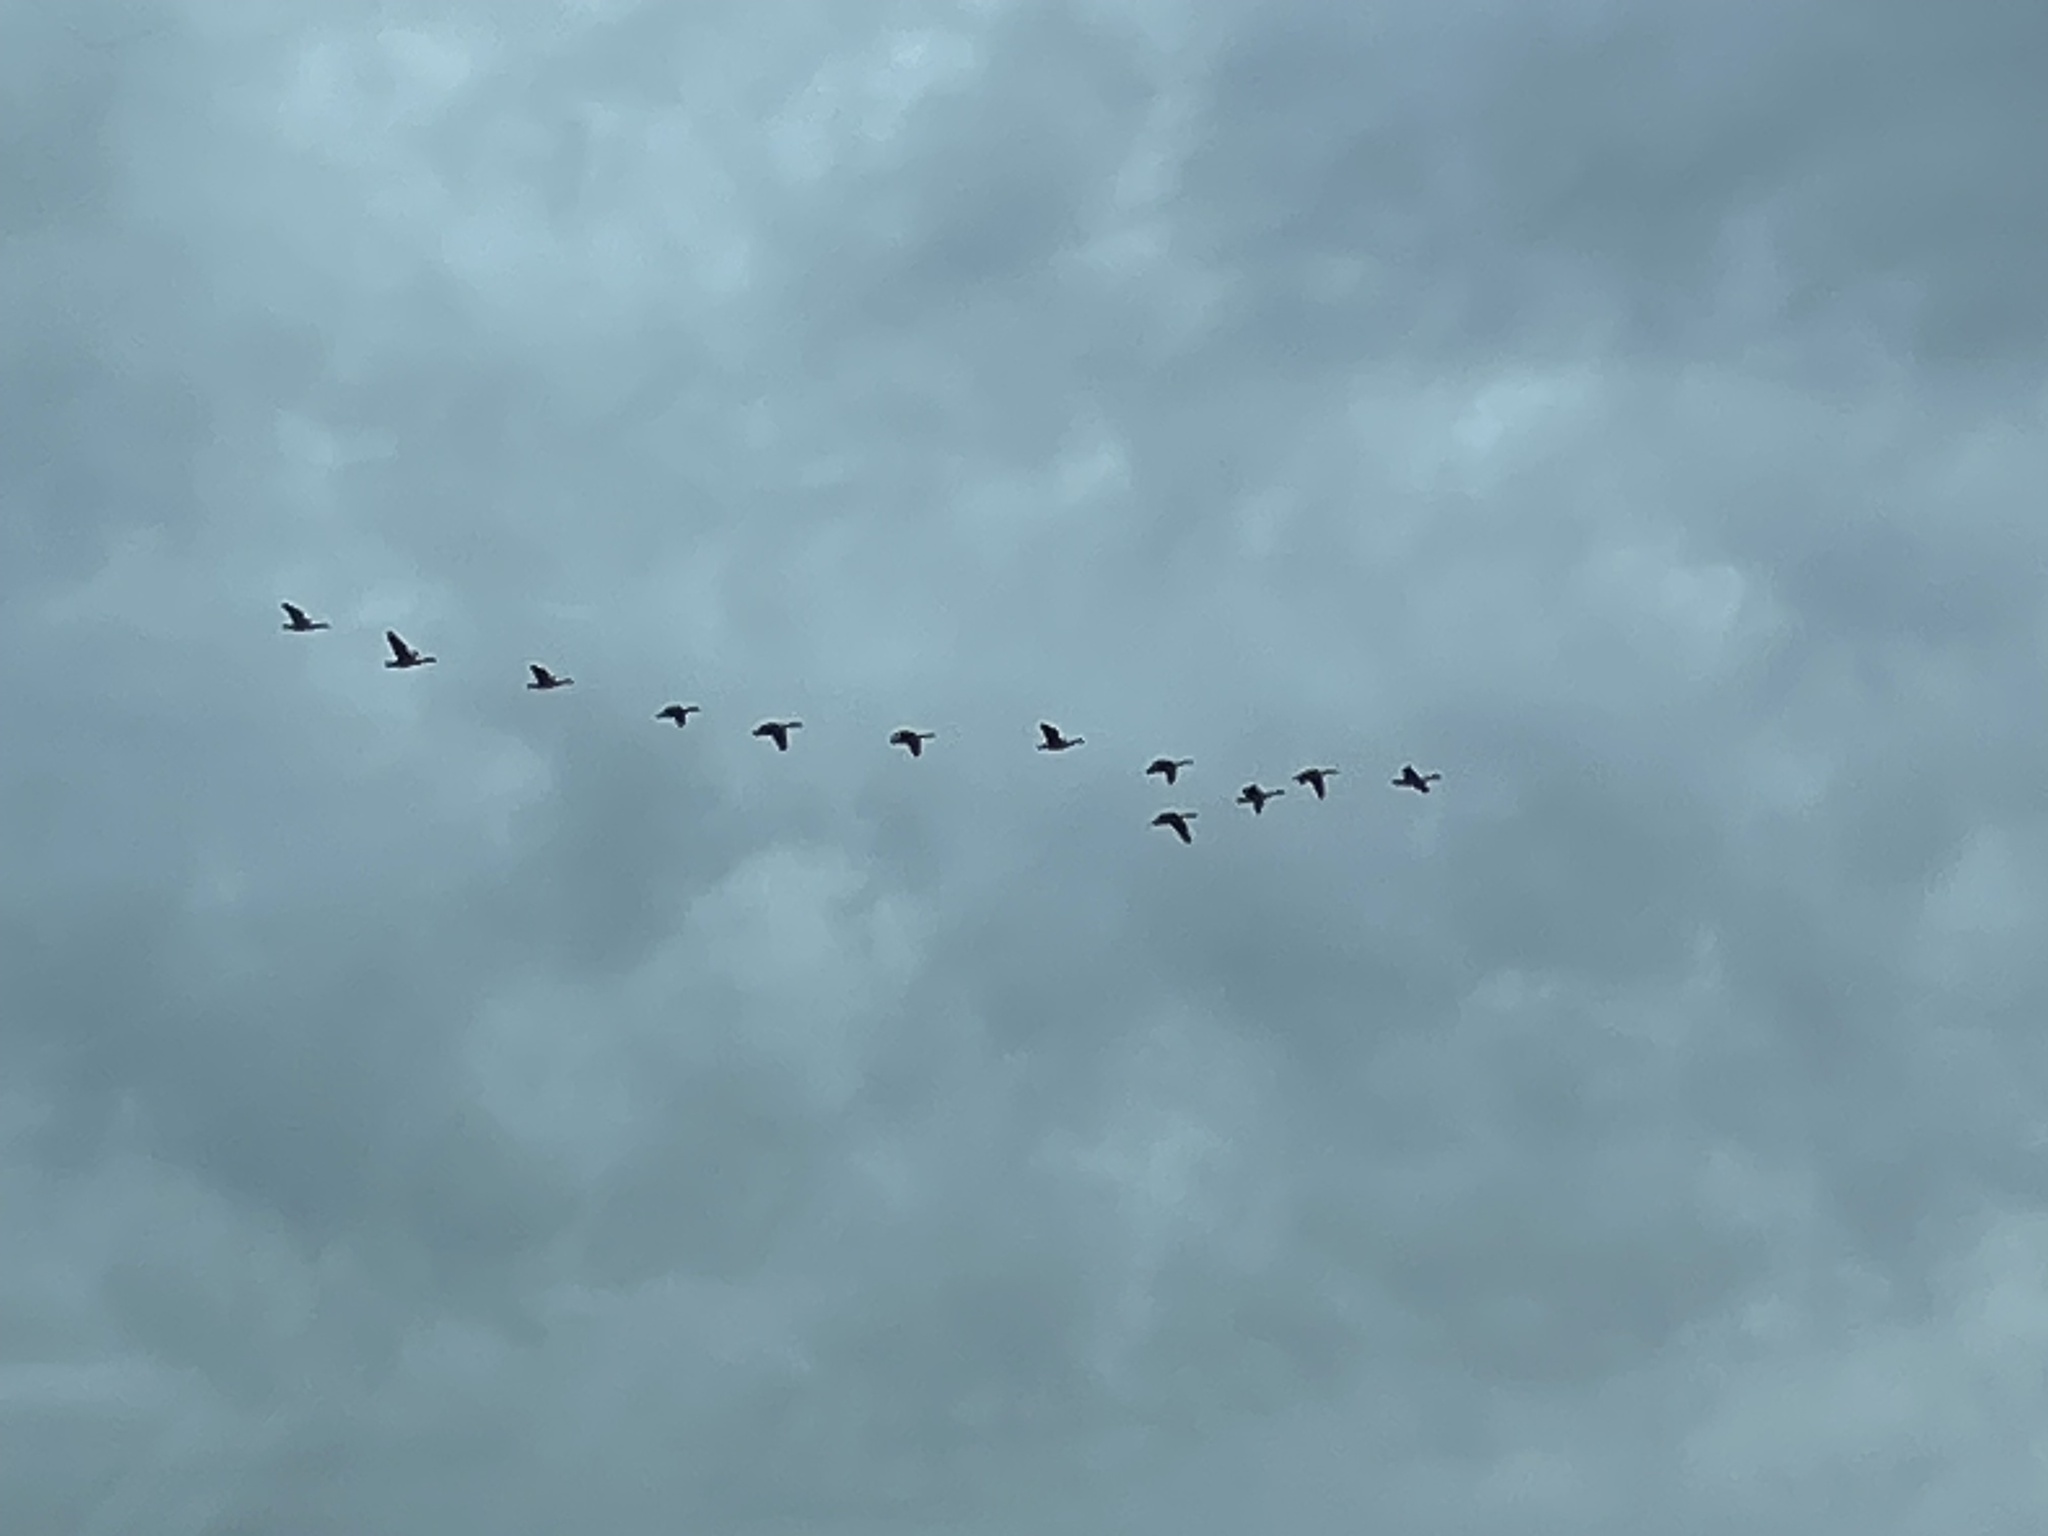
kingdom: Animalia
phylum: Chordata
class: Aves
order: Anseriformes
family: Anatidae
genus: Branta
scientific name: Branta canadensis
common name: Canada goose
